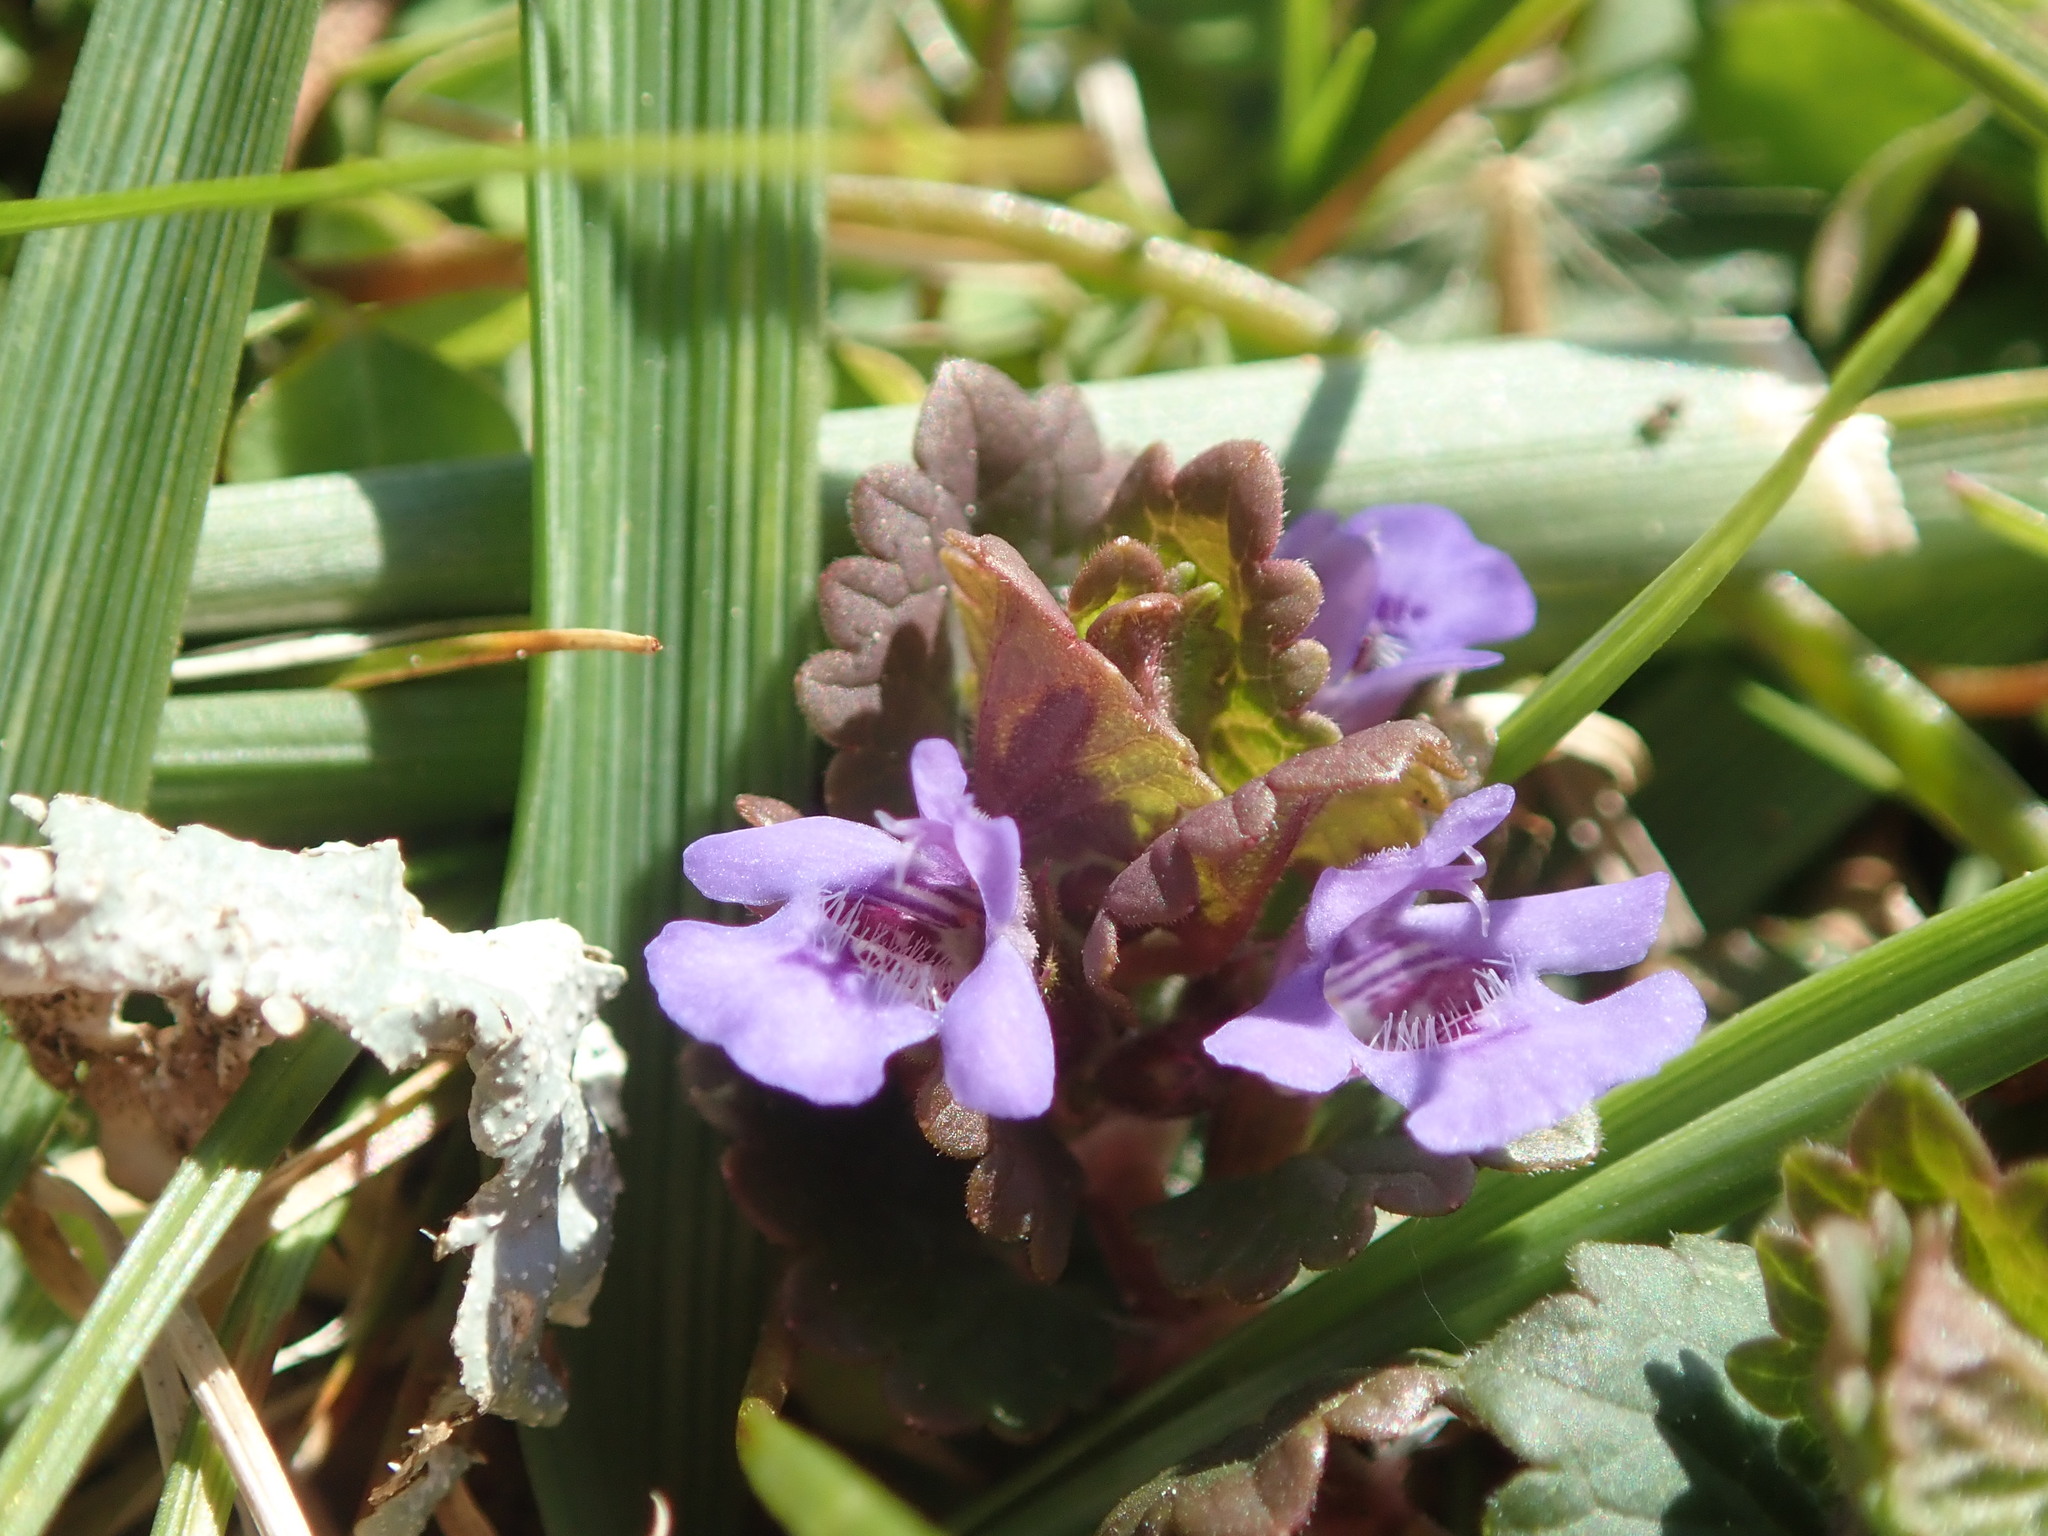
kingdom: Plantae
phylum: Tracheophyta
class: Magnoliopsida
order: Lamiales
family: Lamiaceae
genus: Glechoma
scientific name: Glechoma hederacea
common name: Ground ivy
